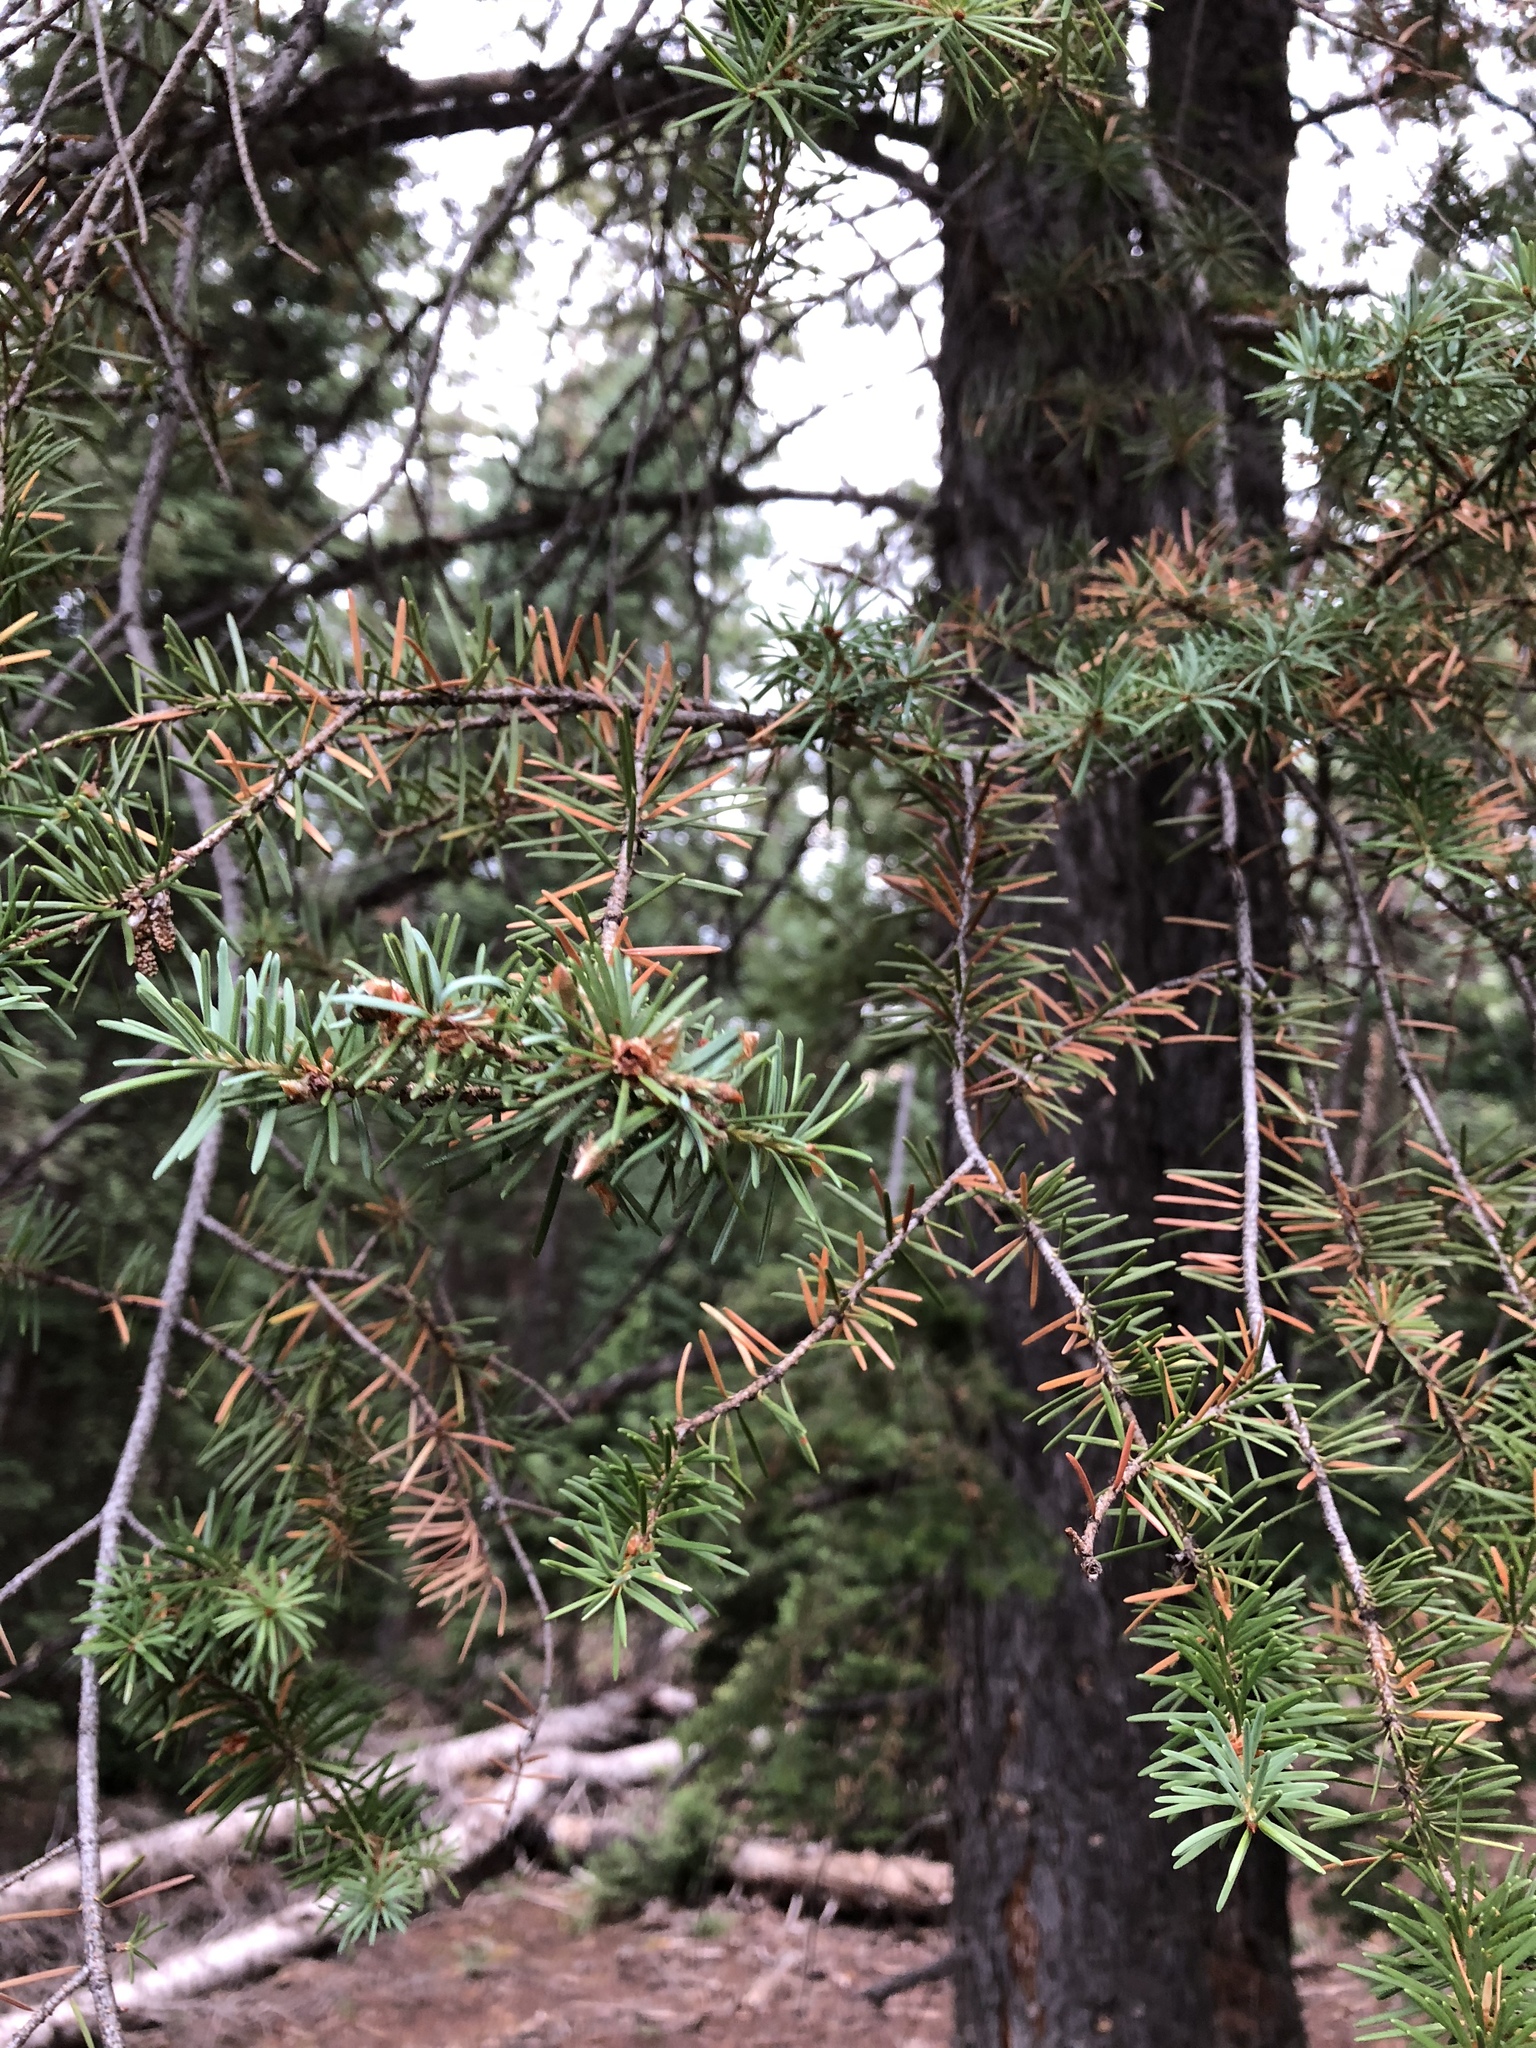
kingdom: Plantae
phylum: Tracheophyta
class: Pinopsida
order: Pinales
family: Pinaceae
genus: Pseudotsuga
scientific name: Pseudotsuga menziesii
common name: Douglas fir
